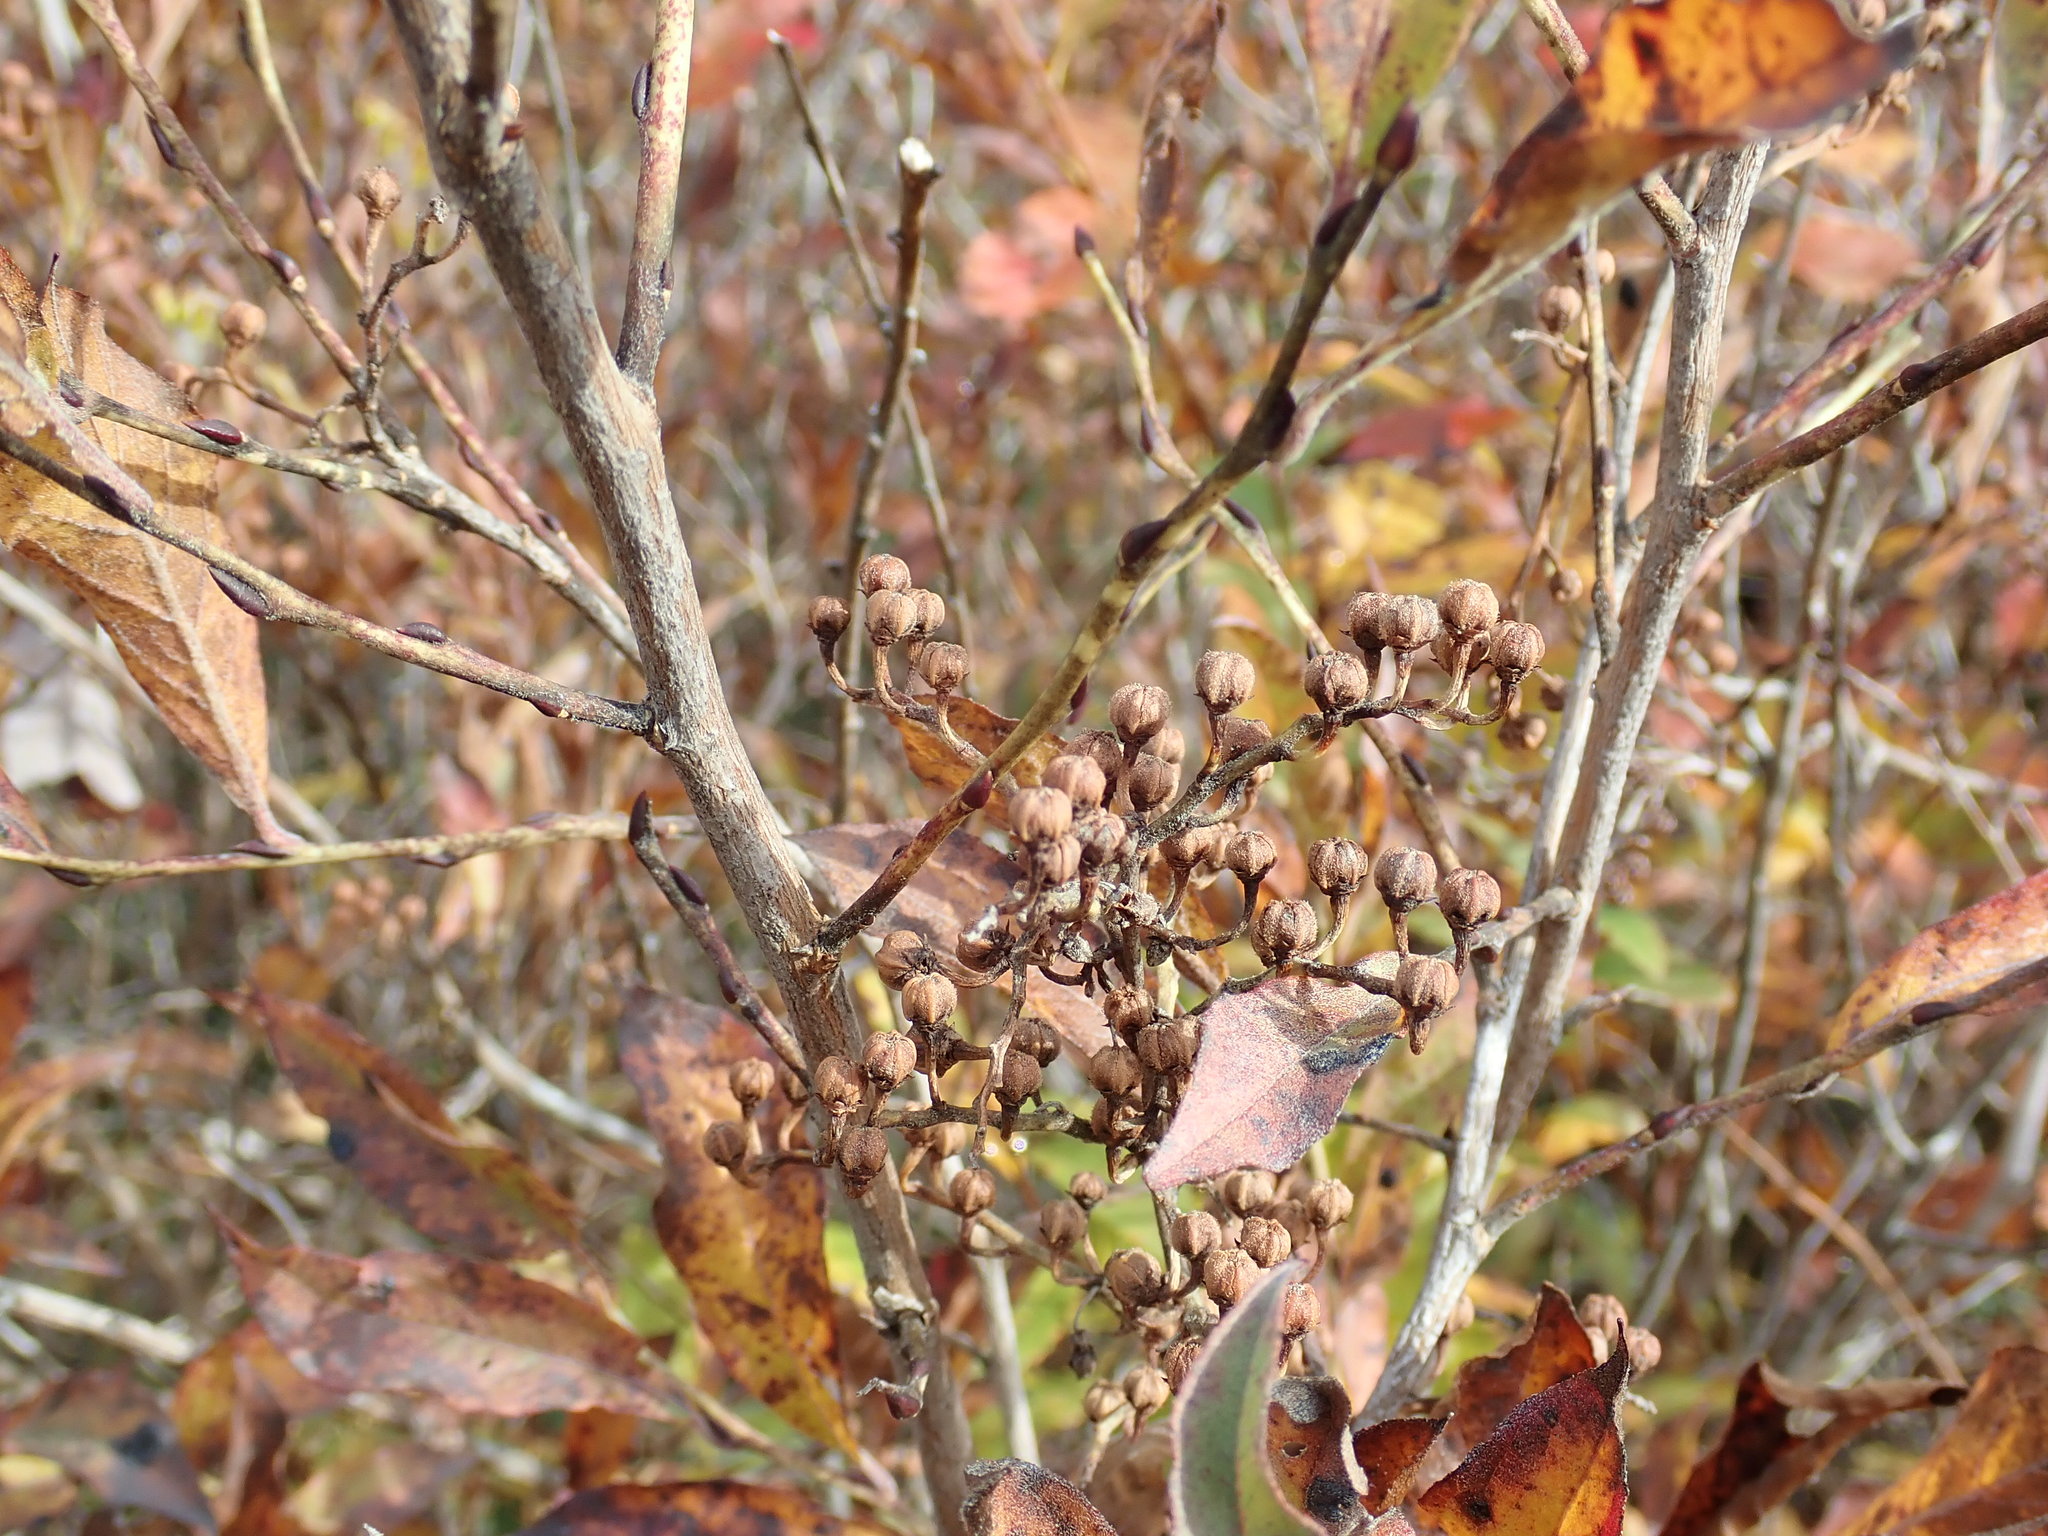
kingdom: Plantae
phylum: Tracheophyta
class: Magnoliopsida
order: Ericales
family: Ericaceae
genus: Lyonia
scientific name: Lyonia ligustrina
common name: Maleberry
